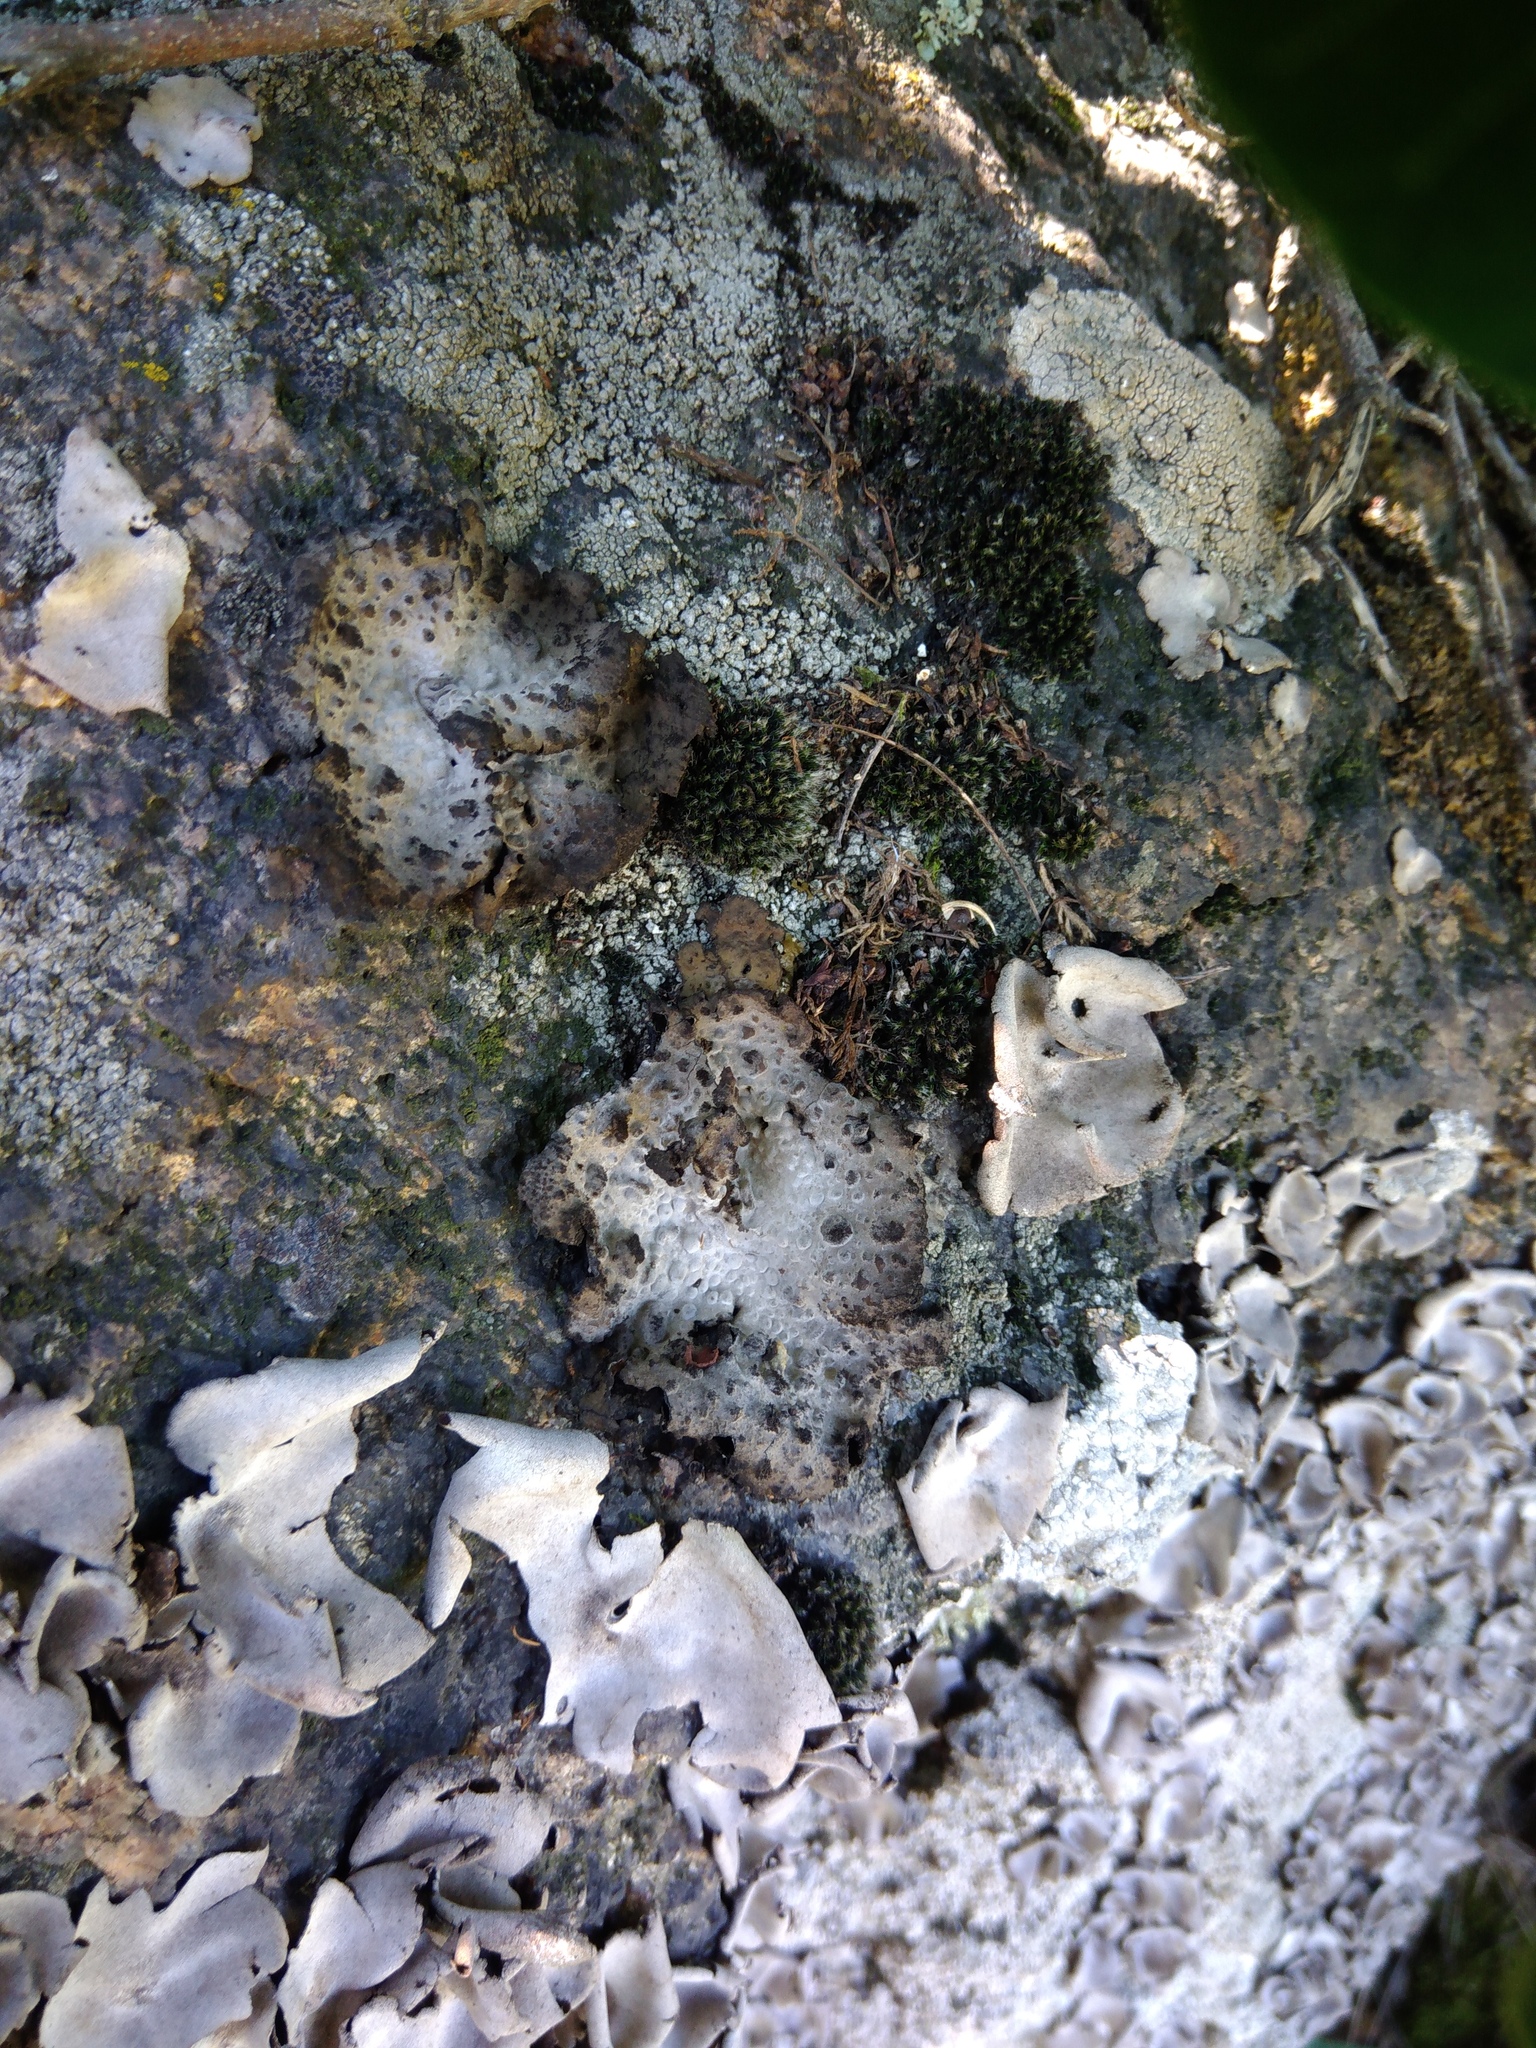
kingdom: Fungi
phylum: Ascomycota
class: Lecanoromycetes
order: Umbilicariales
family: Umbilicariaceae
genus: Lasallia
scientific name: Lasallia pustulata
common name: Blistered toadskin lichen
